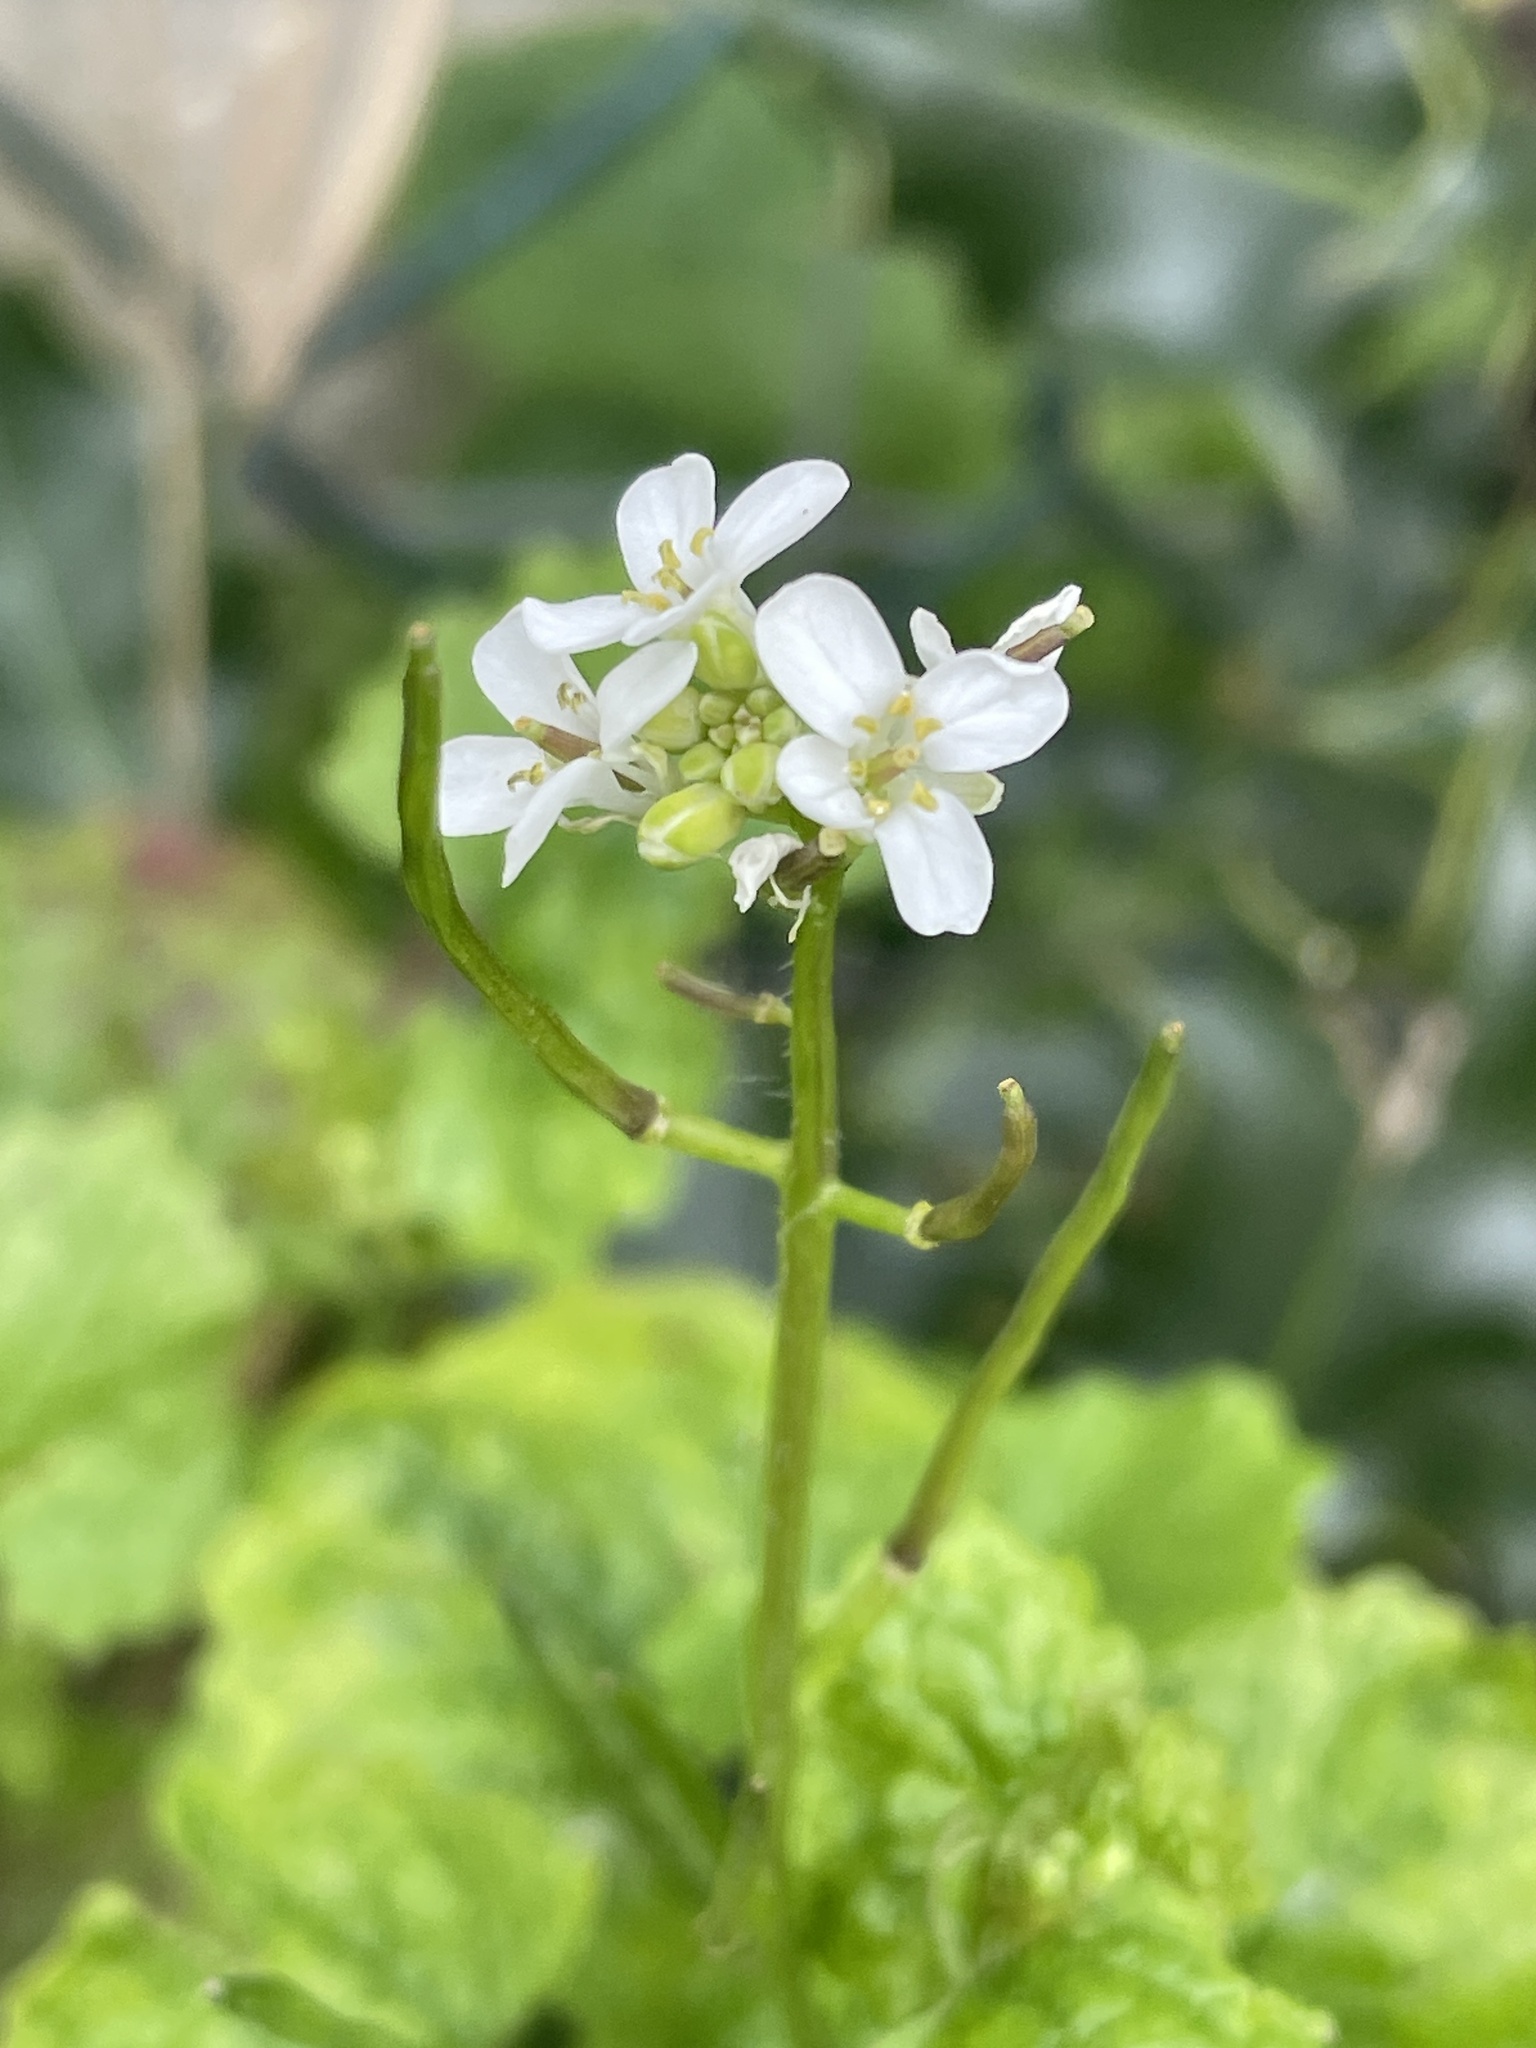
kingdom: Plantae
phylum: Tracheophyta
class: Magnoliopsida
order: Brassicales
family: Brassicaceae
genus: Alliaria
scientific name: Alliaria petiolata
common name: Garlic mustard
